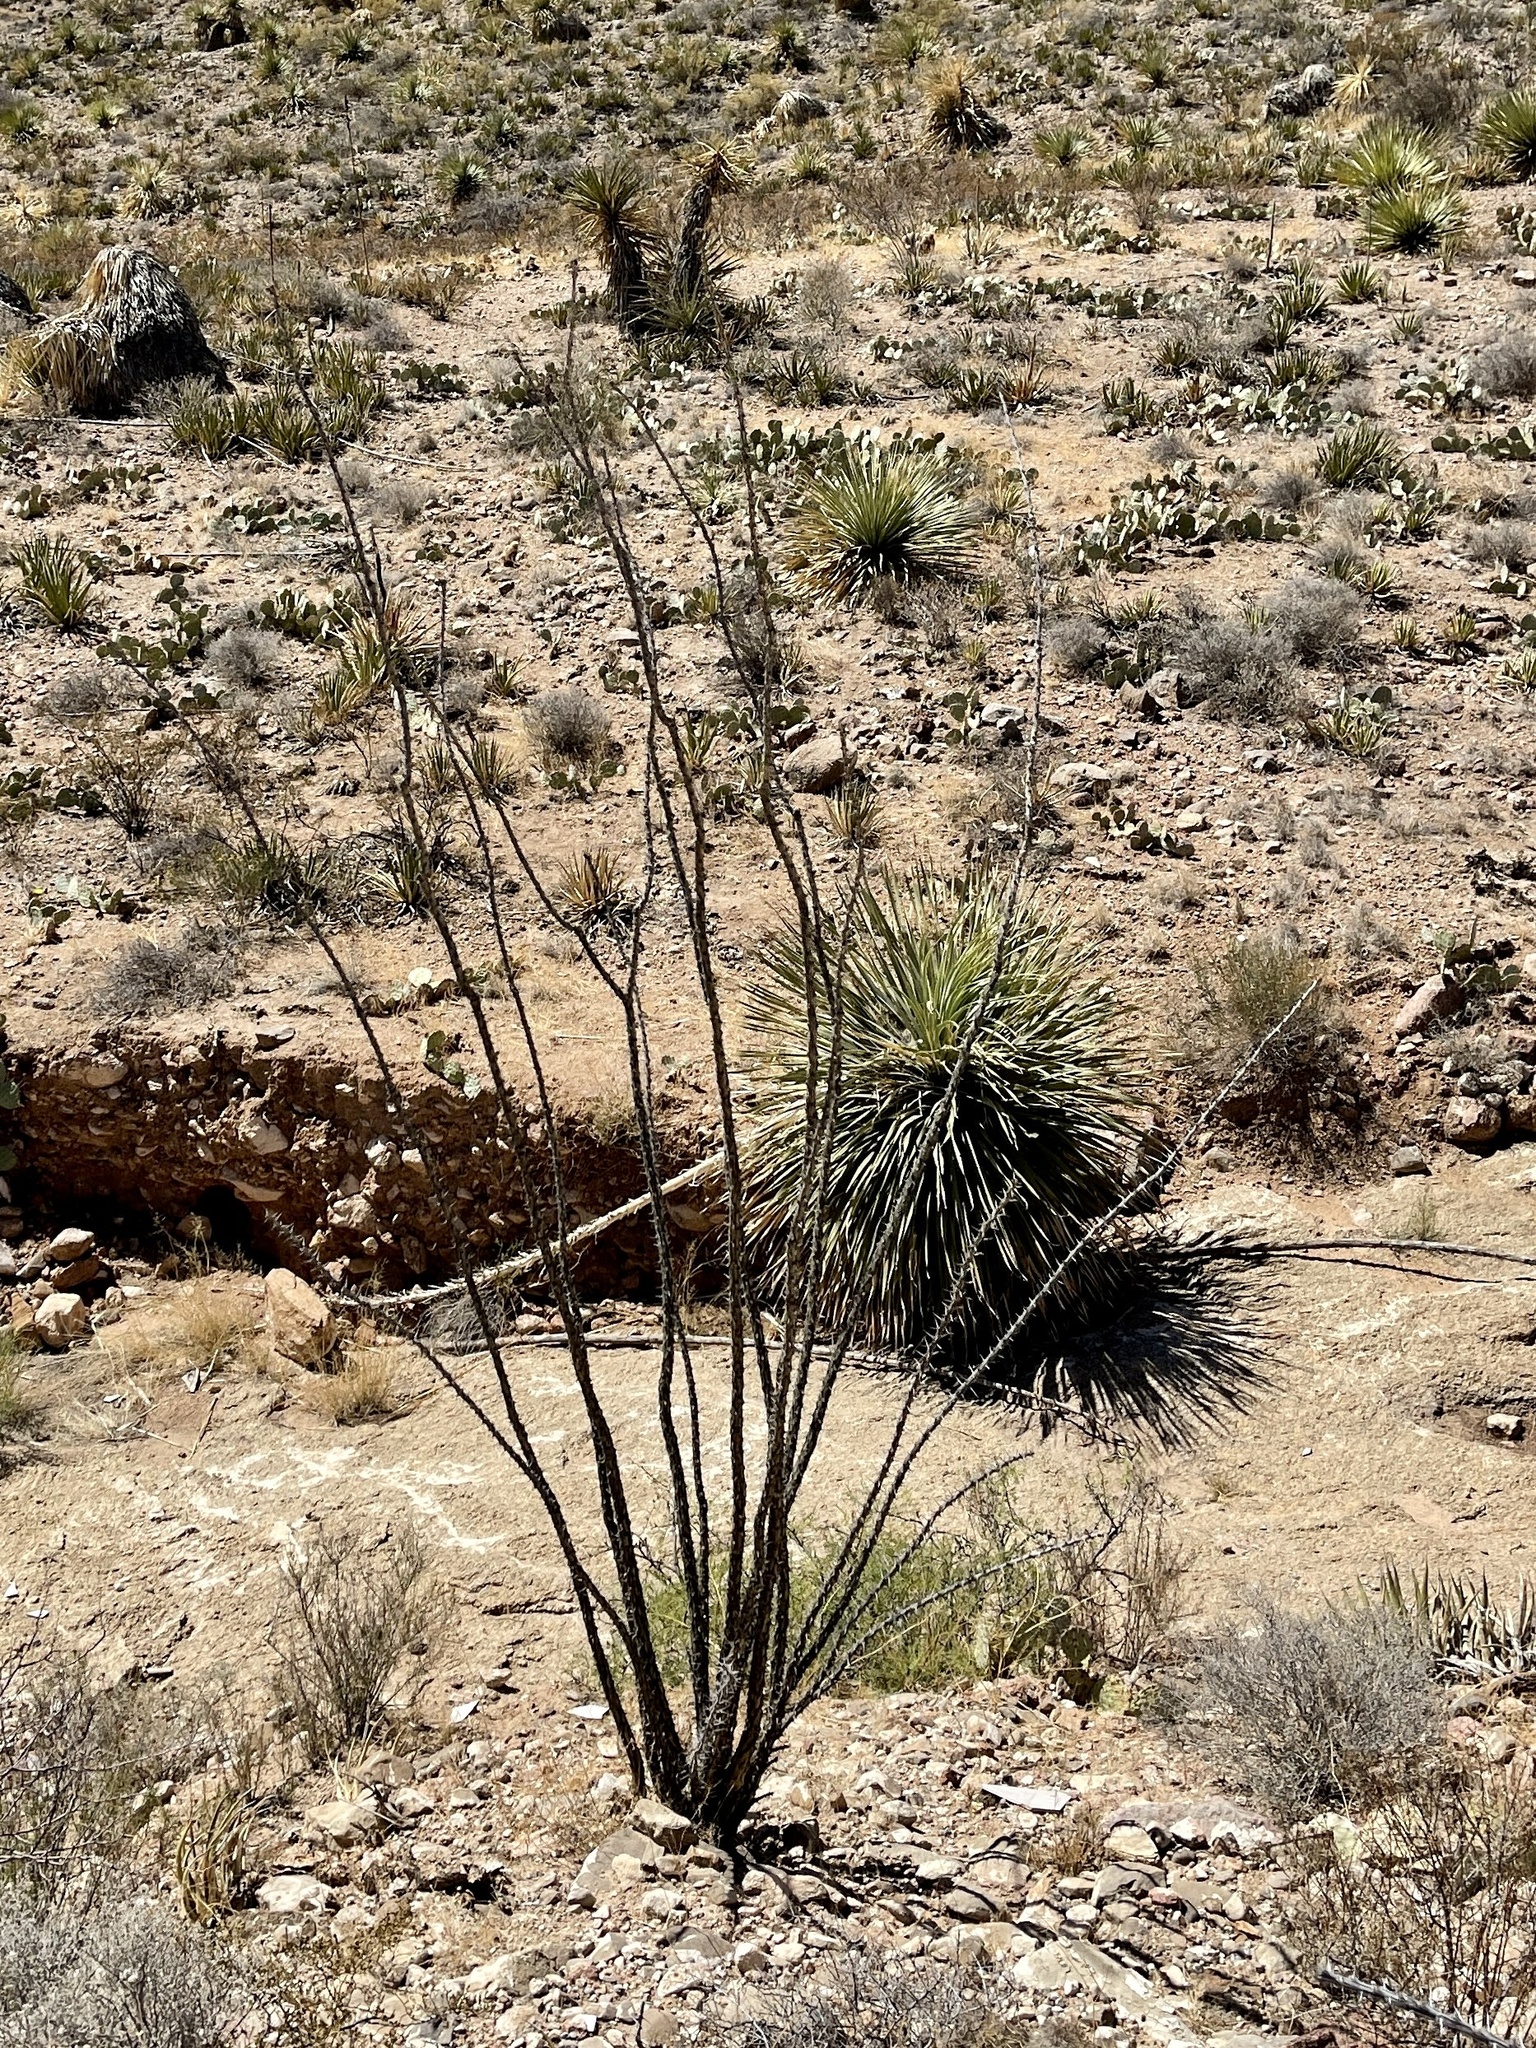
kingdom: Plantae
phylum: Tracheophyta
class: Magnoliopsida
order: Ericales
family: Fouquieriaceae
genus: Fouquieria
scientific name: Fouquieria splendens
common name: Vine-cactus
